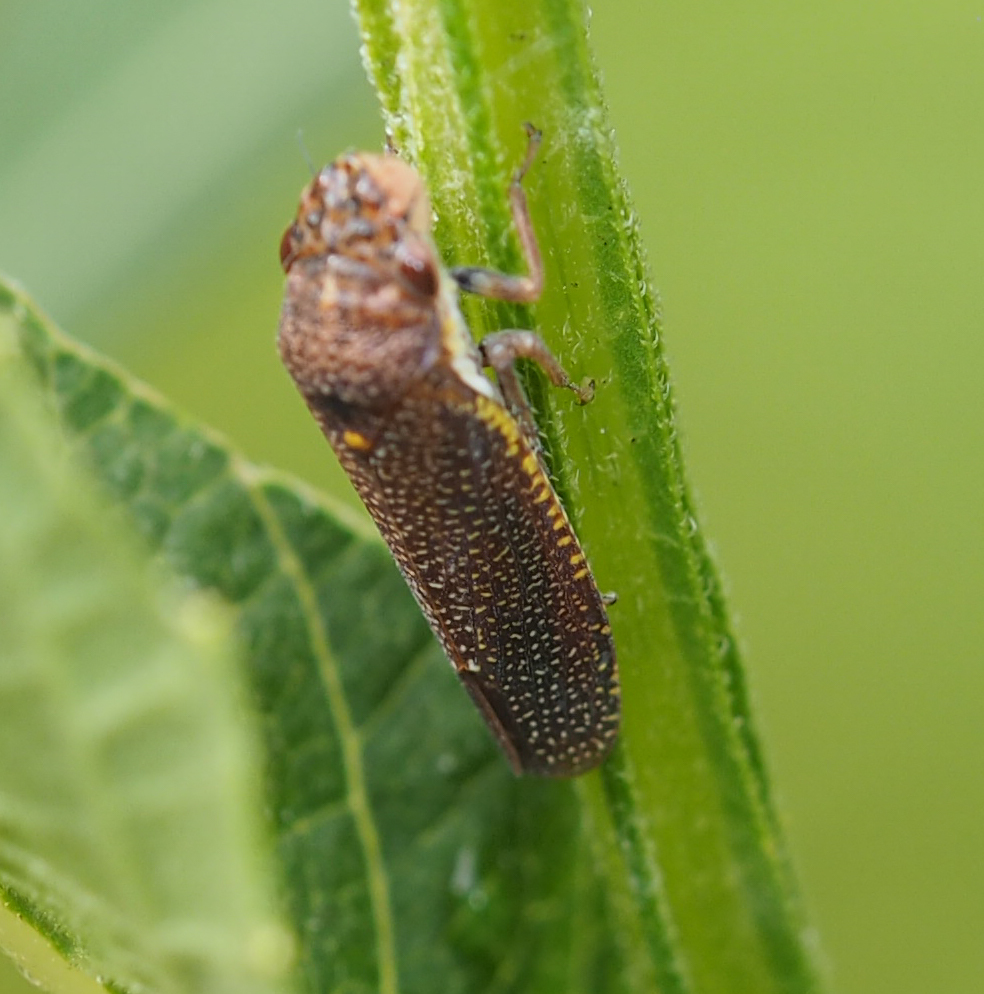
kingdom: Animalia
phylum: Arthropoda
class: Insecta
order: Hemiptera
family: Cicadellidae
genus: Paraulacizes
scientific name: Paraulacizes irrorata
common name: Speckled sharpshooter
